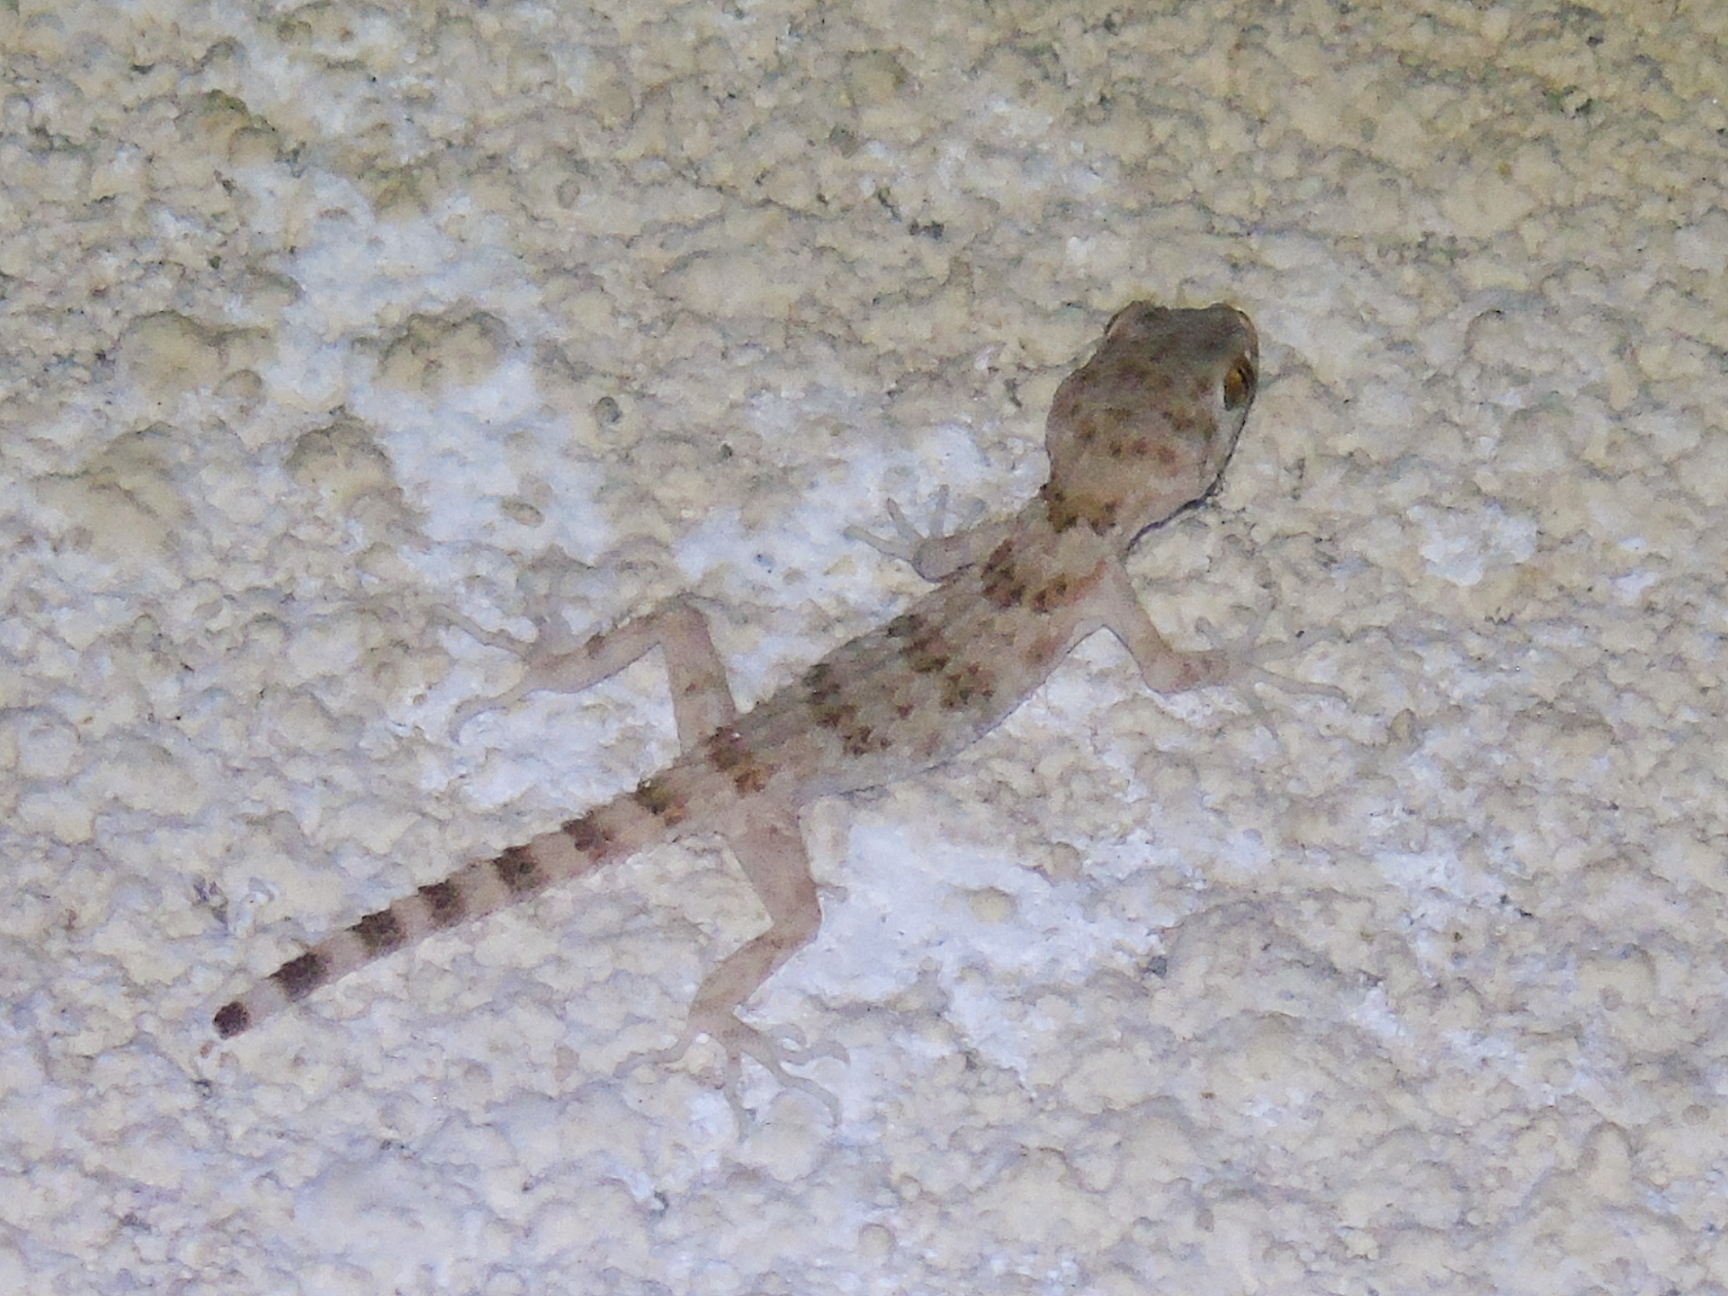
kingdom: Animalia
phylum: Chordata
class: Squamata
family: Gekkonidae
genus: Tenuidactylus
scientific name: Tenuidactylus caspius
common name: Caspian bent-toed gecko
